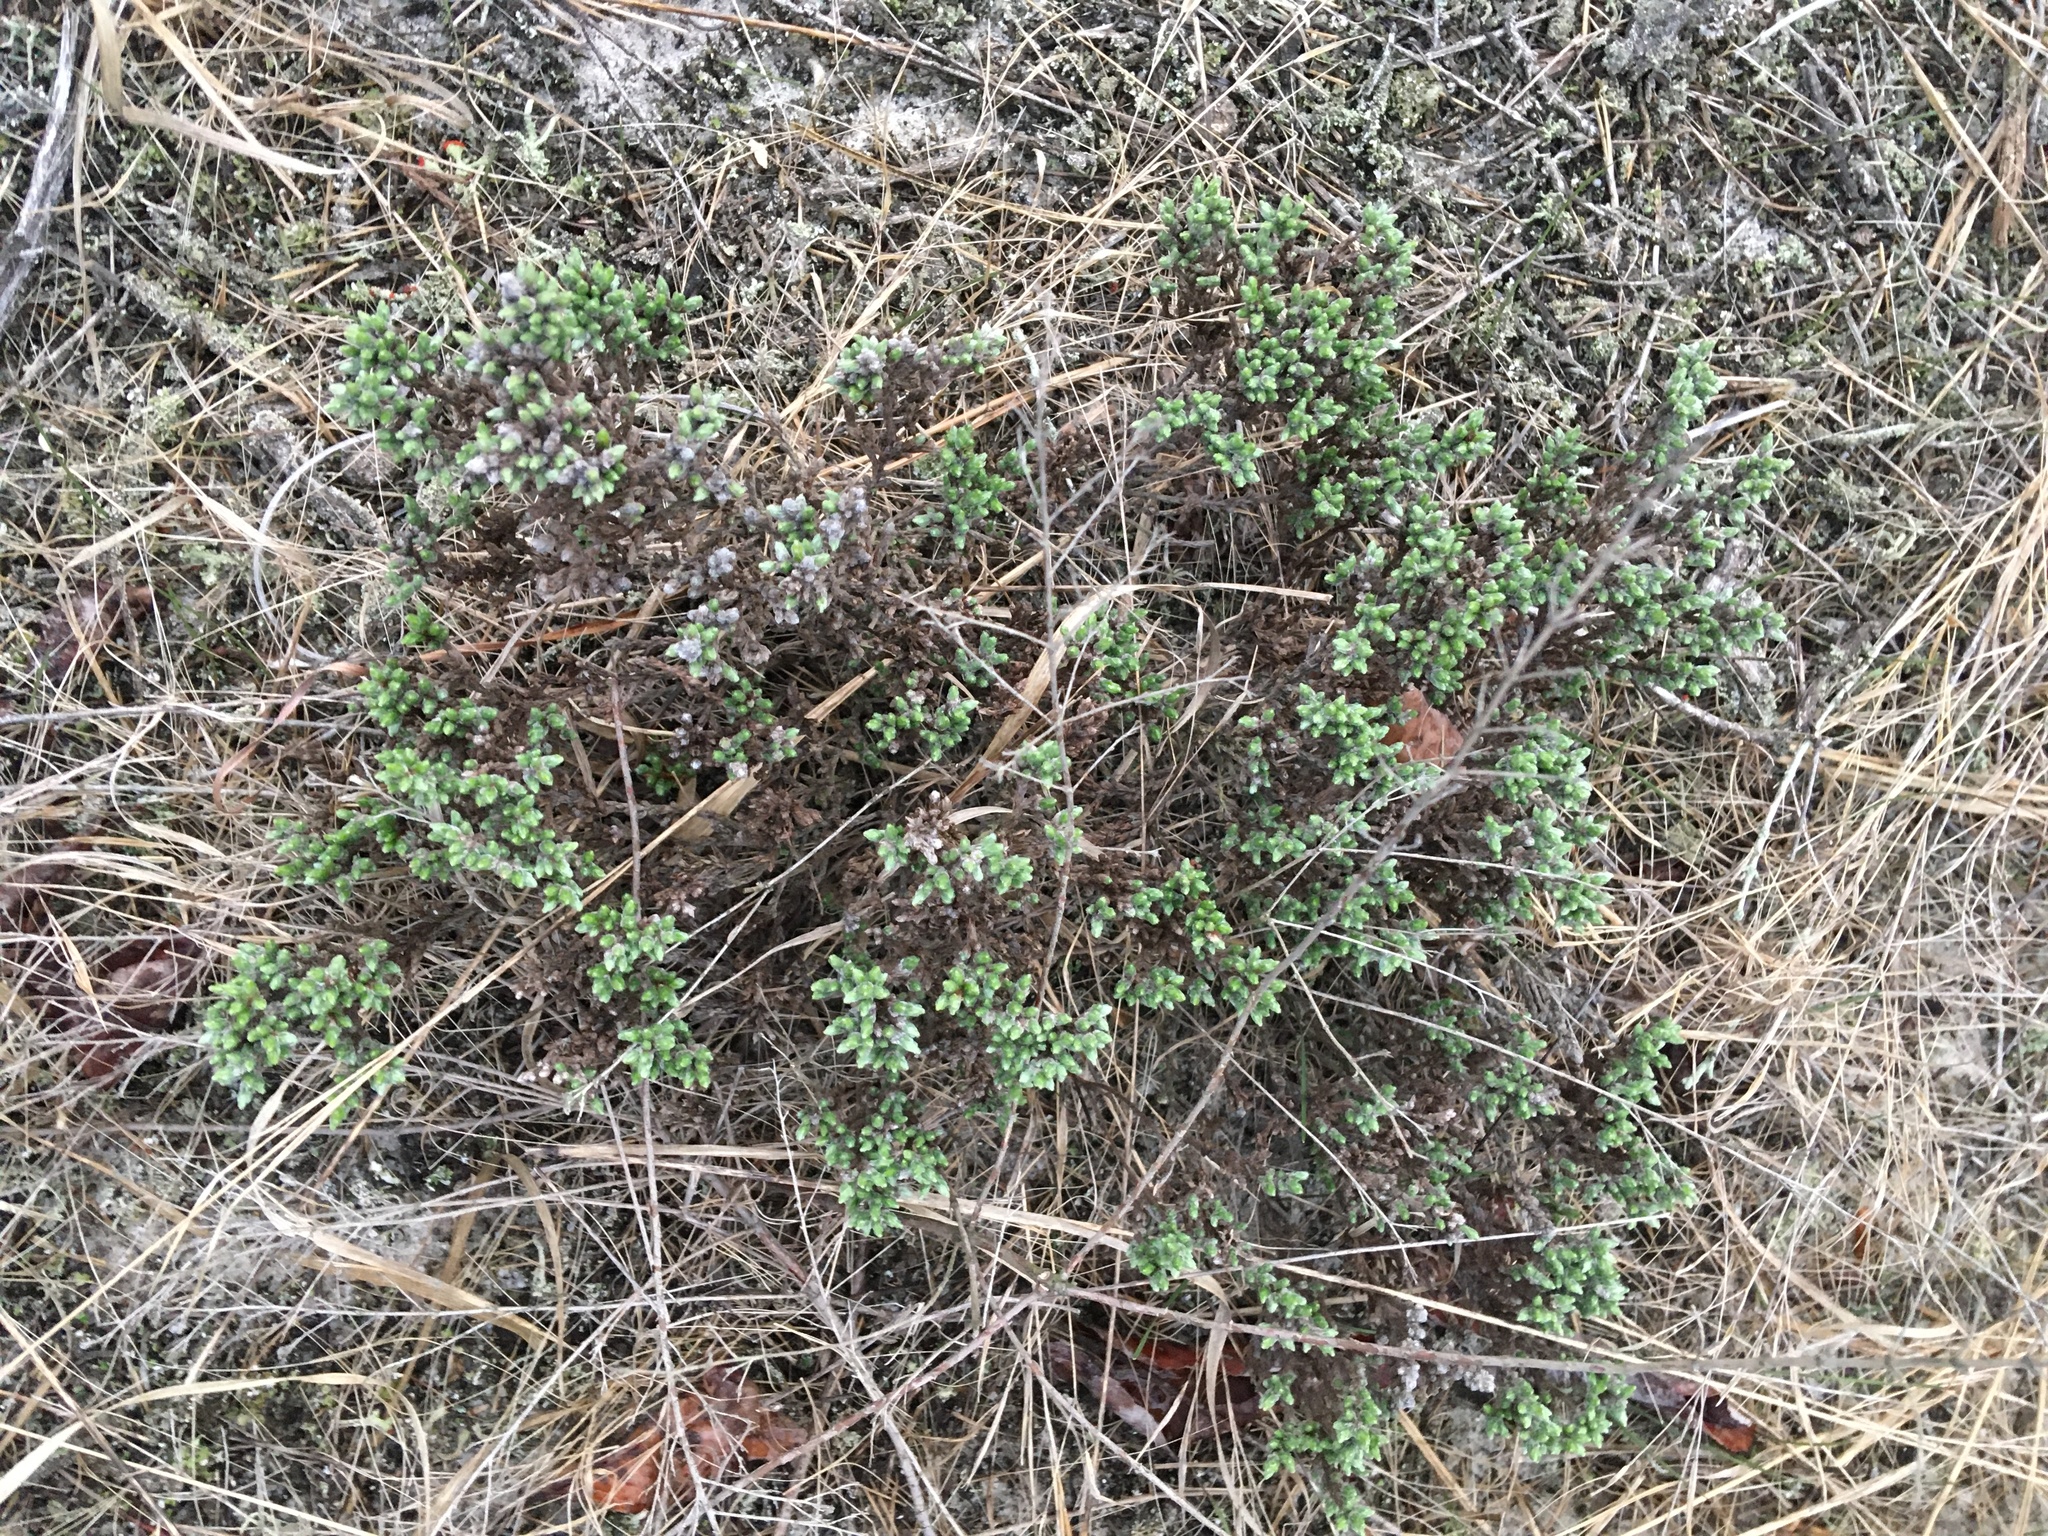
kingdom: Plantae
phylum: Tracheophyta
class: Magnoliopsida
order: Malvales
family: Cistaceae
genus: Hudsonia
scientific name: Hudsonia tomentosa
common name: Beach-heath
